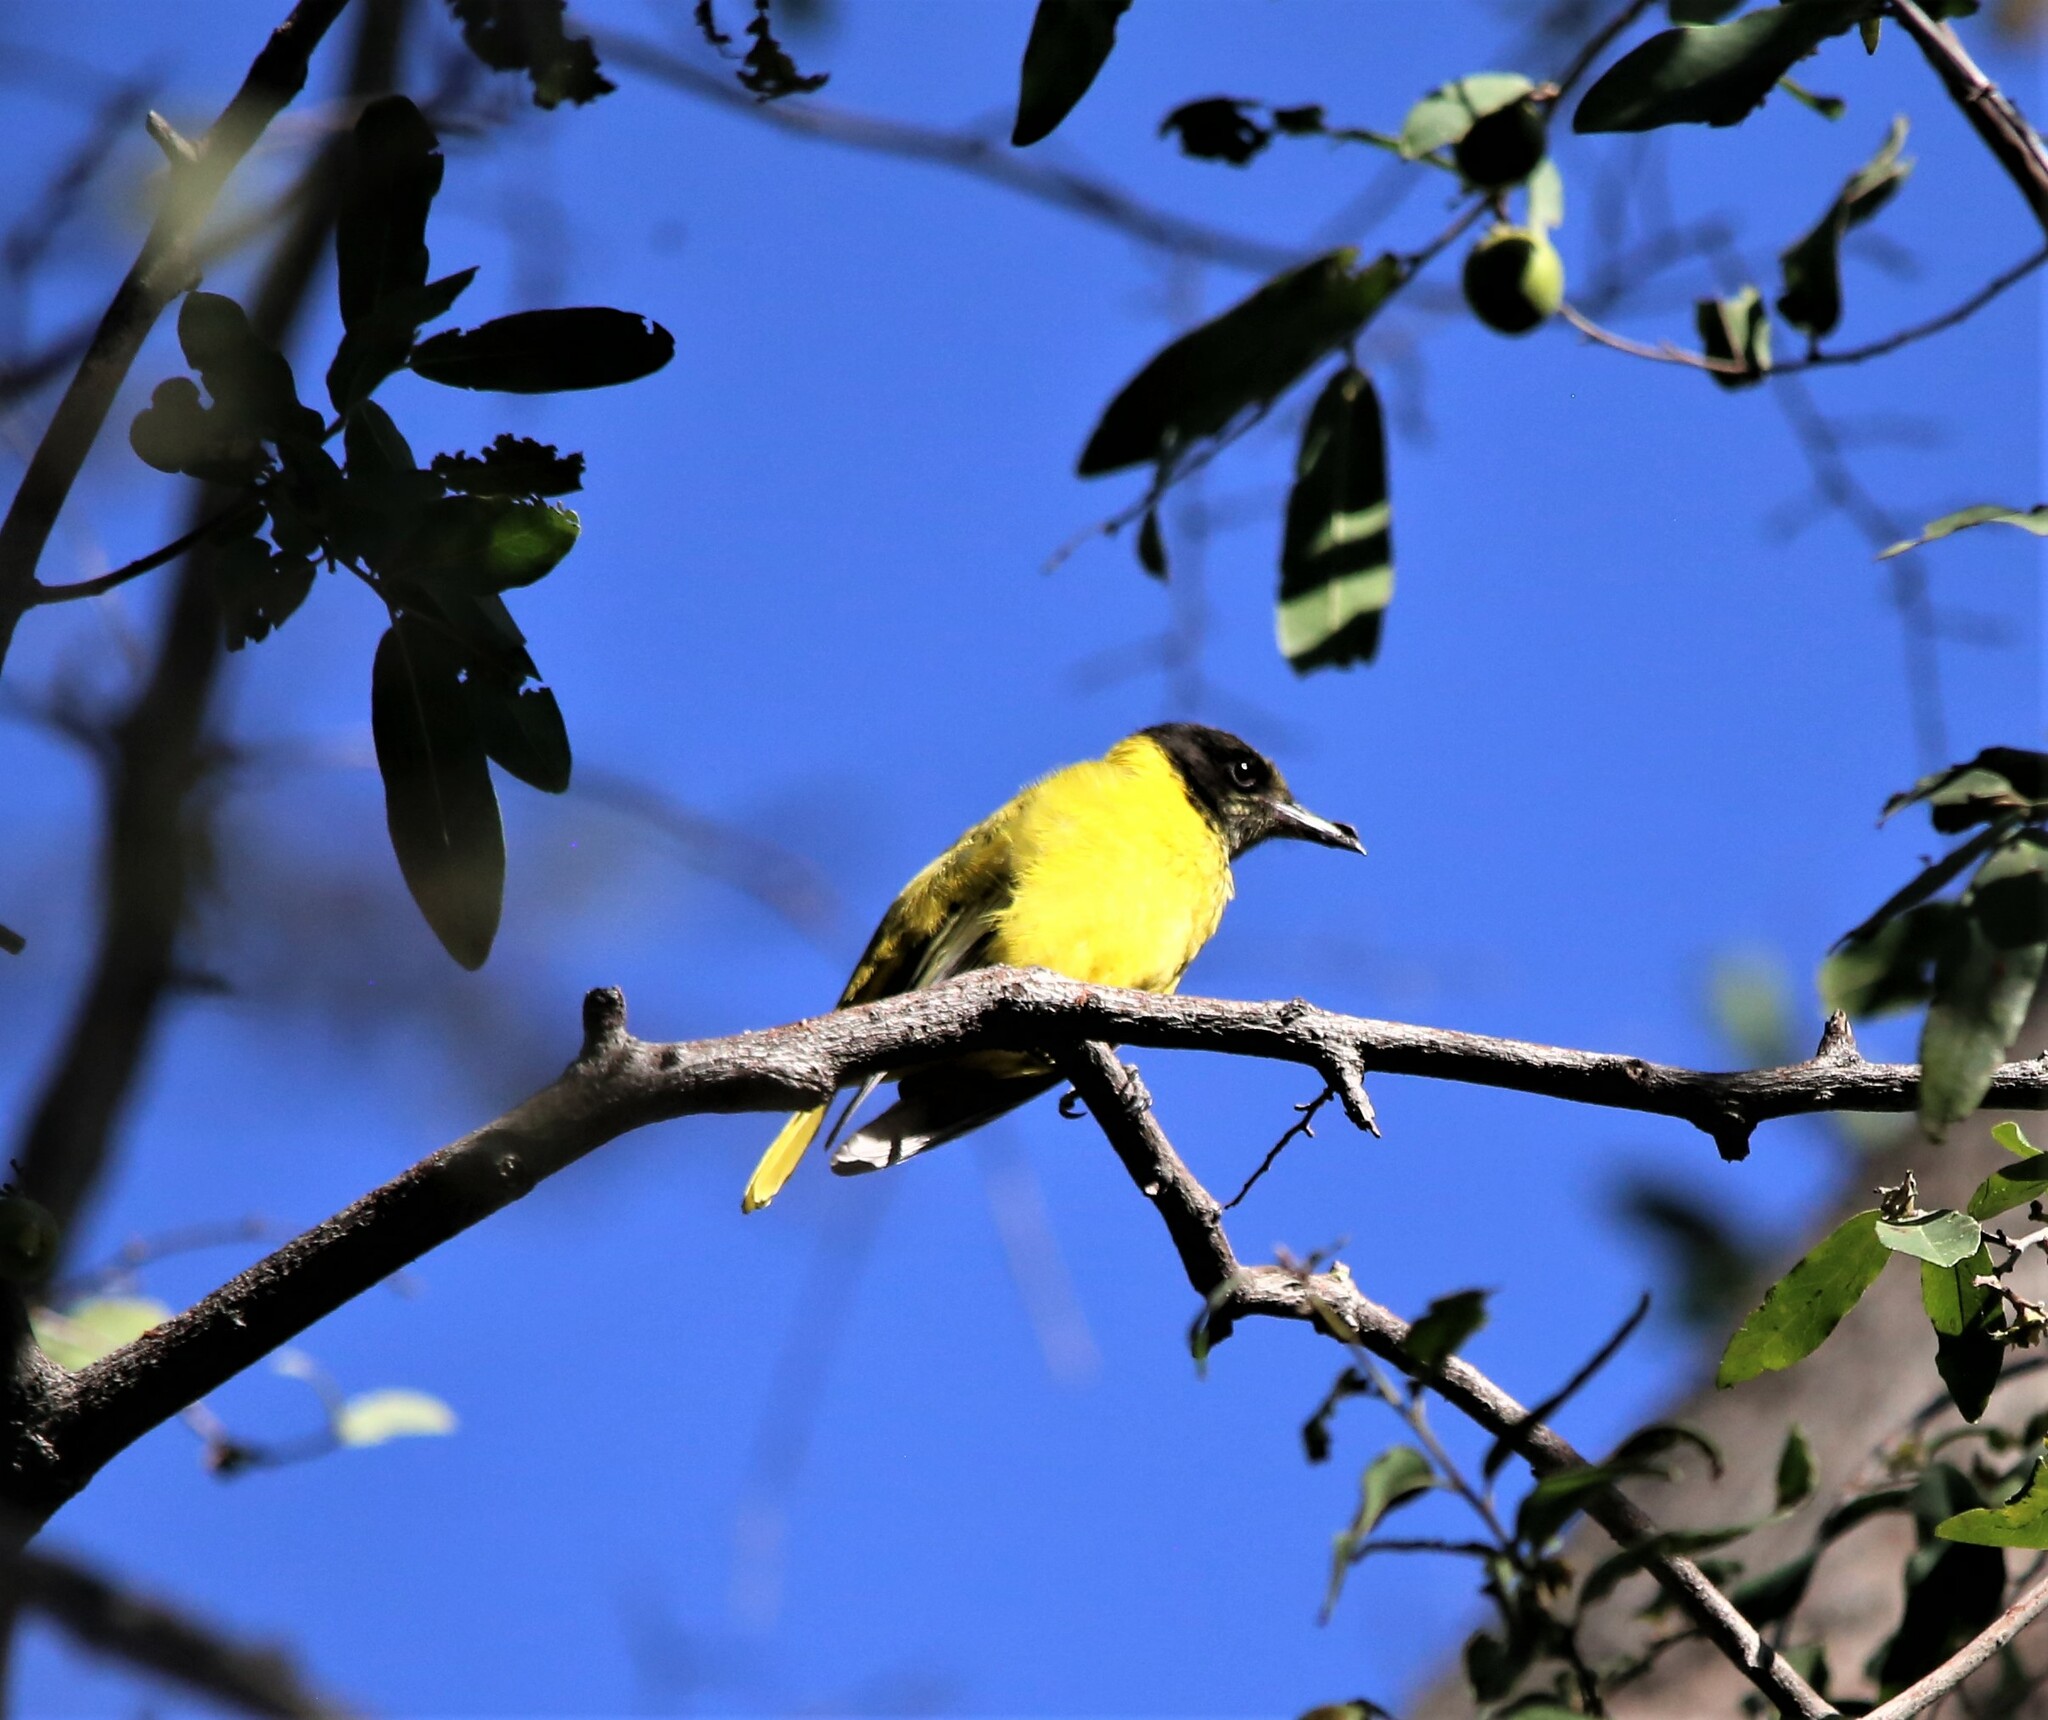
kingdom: Animalia
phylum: Chordata
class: Aves
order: Passeriformes
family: Oriolidae
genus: Oriolus
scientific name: Oriolus larvatus
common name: Black-headed oriole
